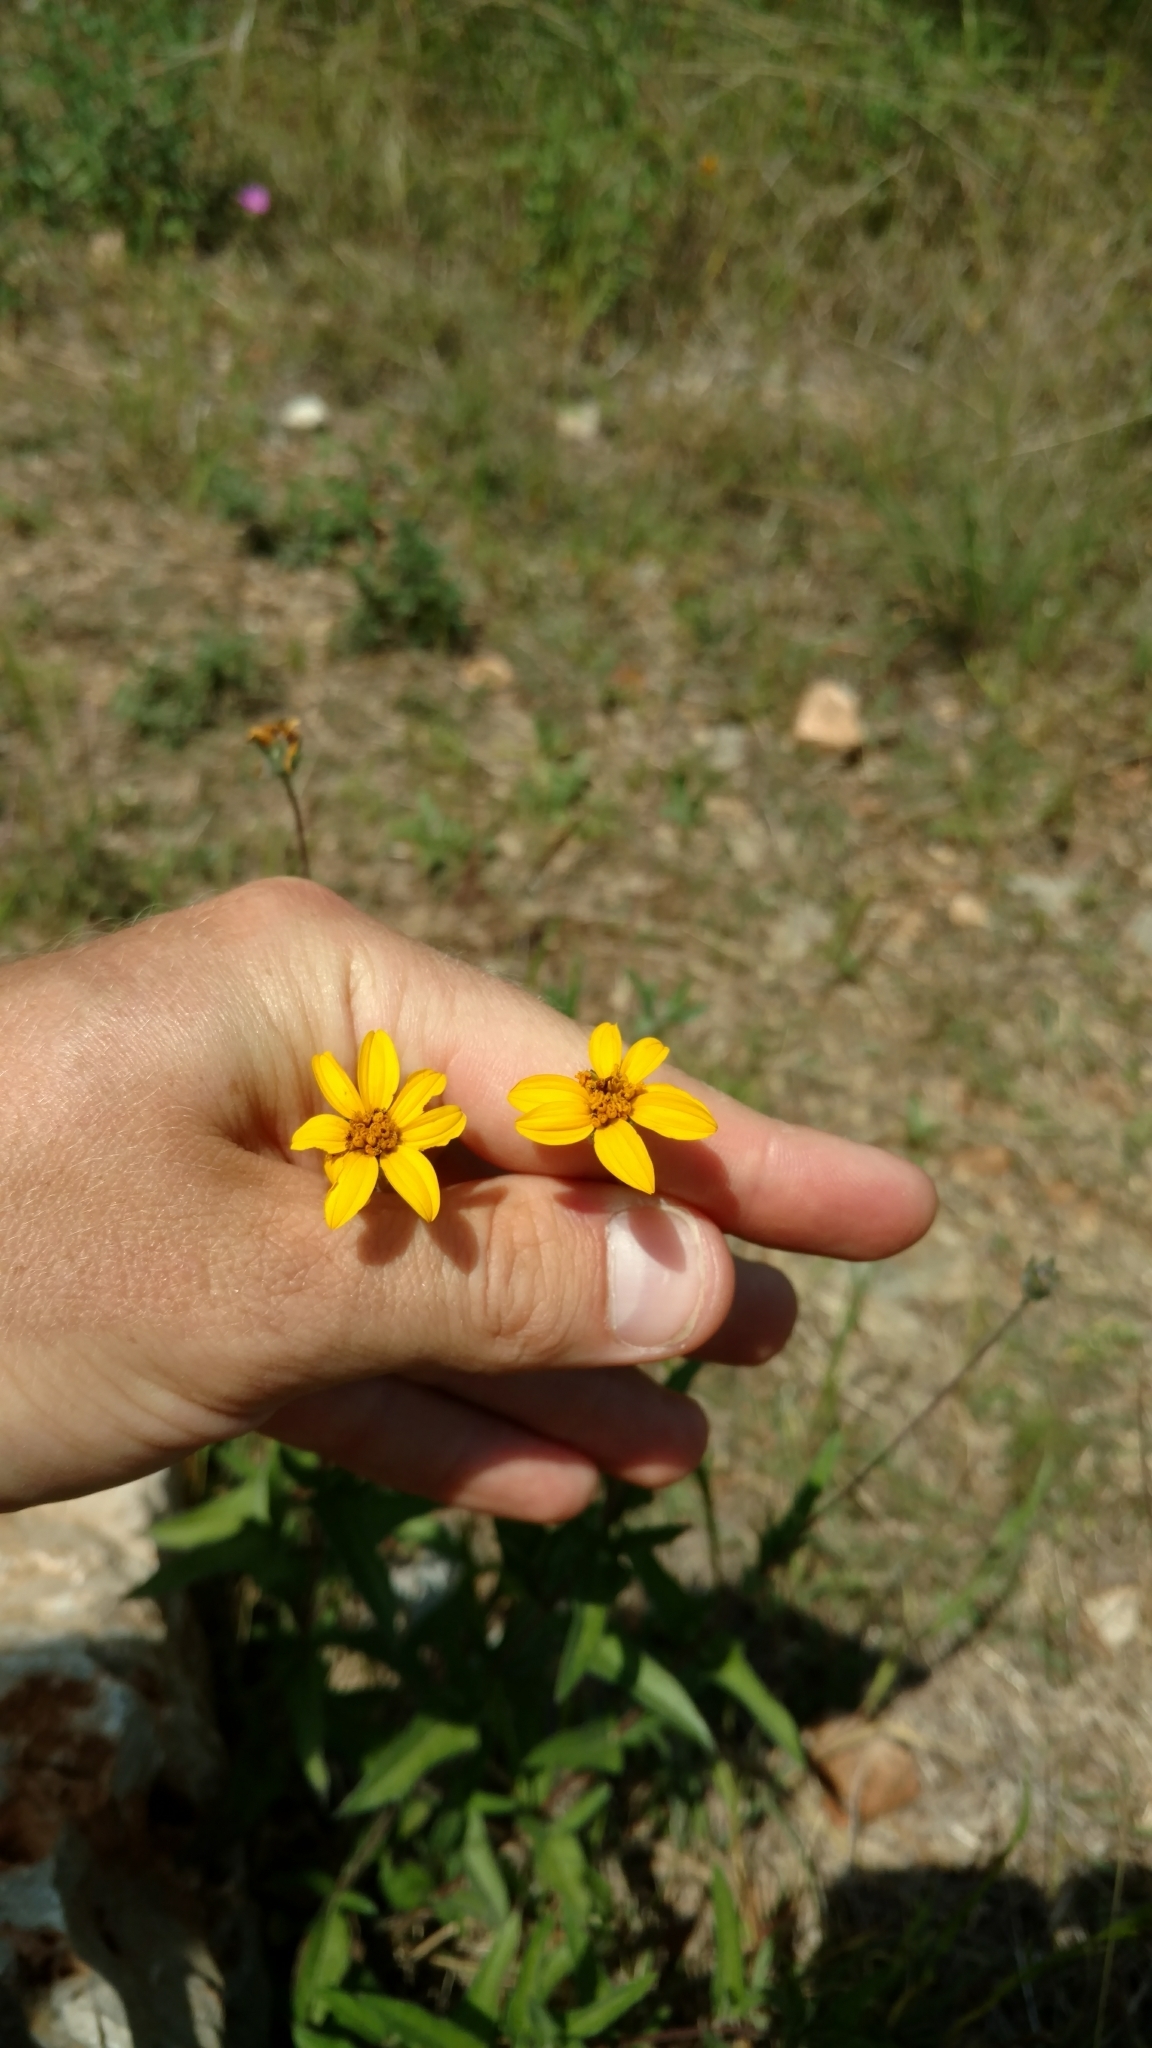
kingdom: Plantae
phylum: Tracheophyta
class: Magnoliopsida
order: Asterales
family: Asteraceae
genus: Wedelia
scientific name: Wedelia acapulcensis
